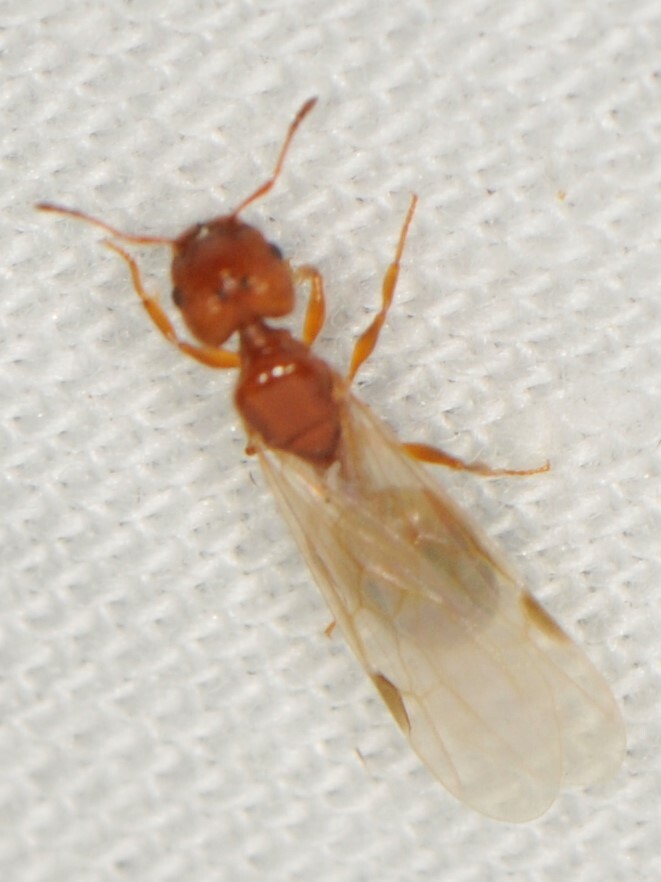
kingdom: Animalia
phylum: Arthropoda
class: Insecta
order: Hymenoptera
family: Formicidae
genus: Pheidole
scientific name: Pheidole
